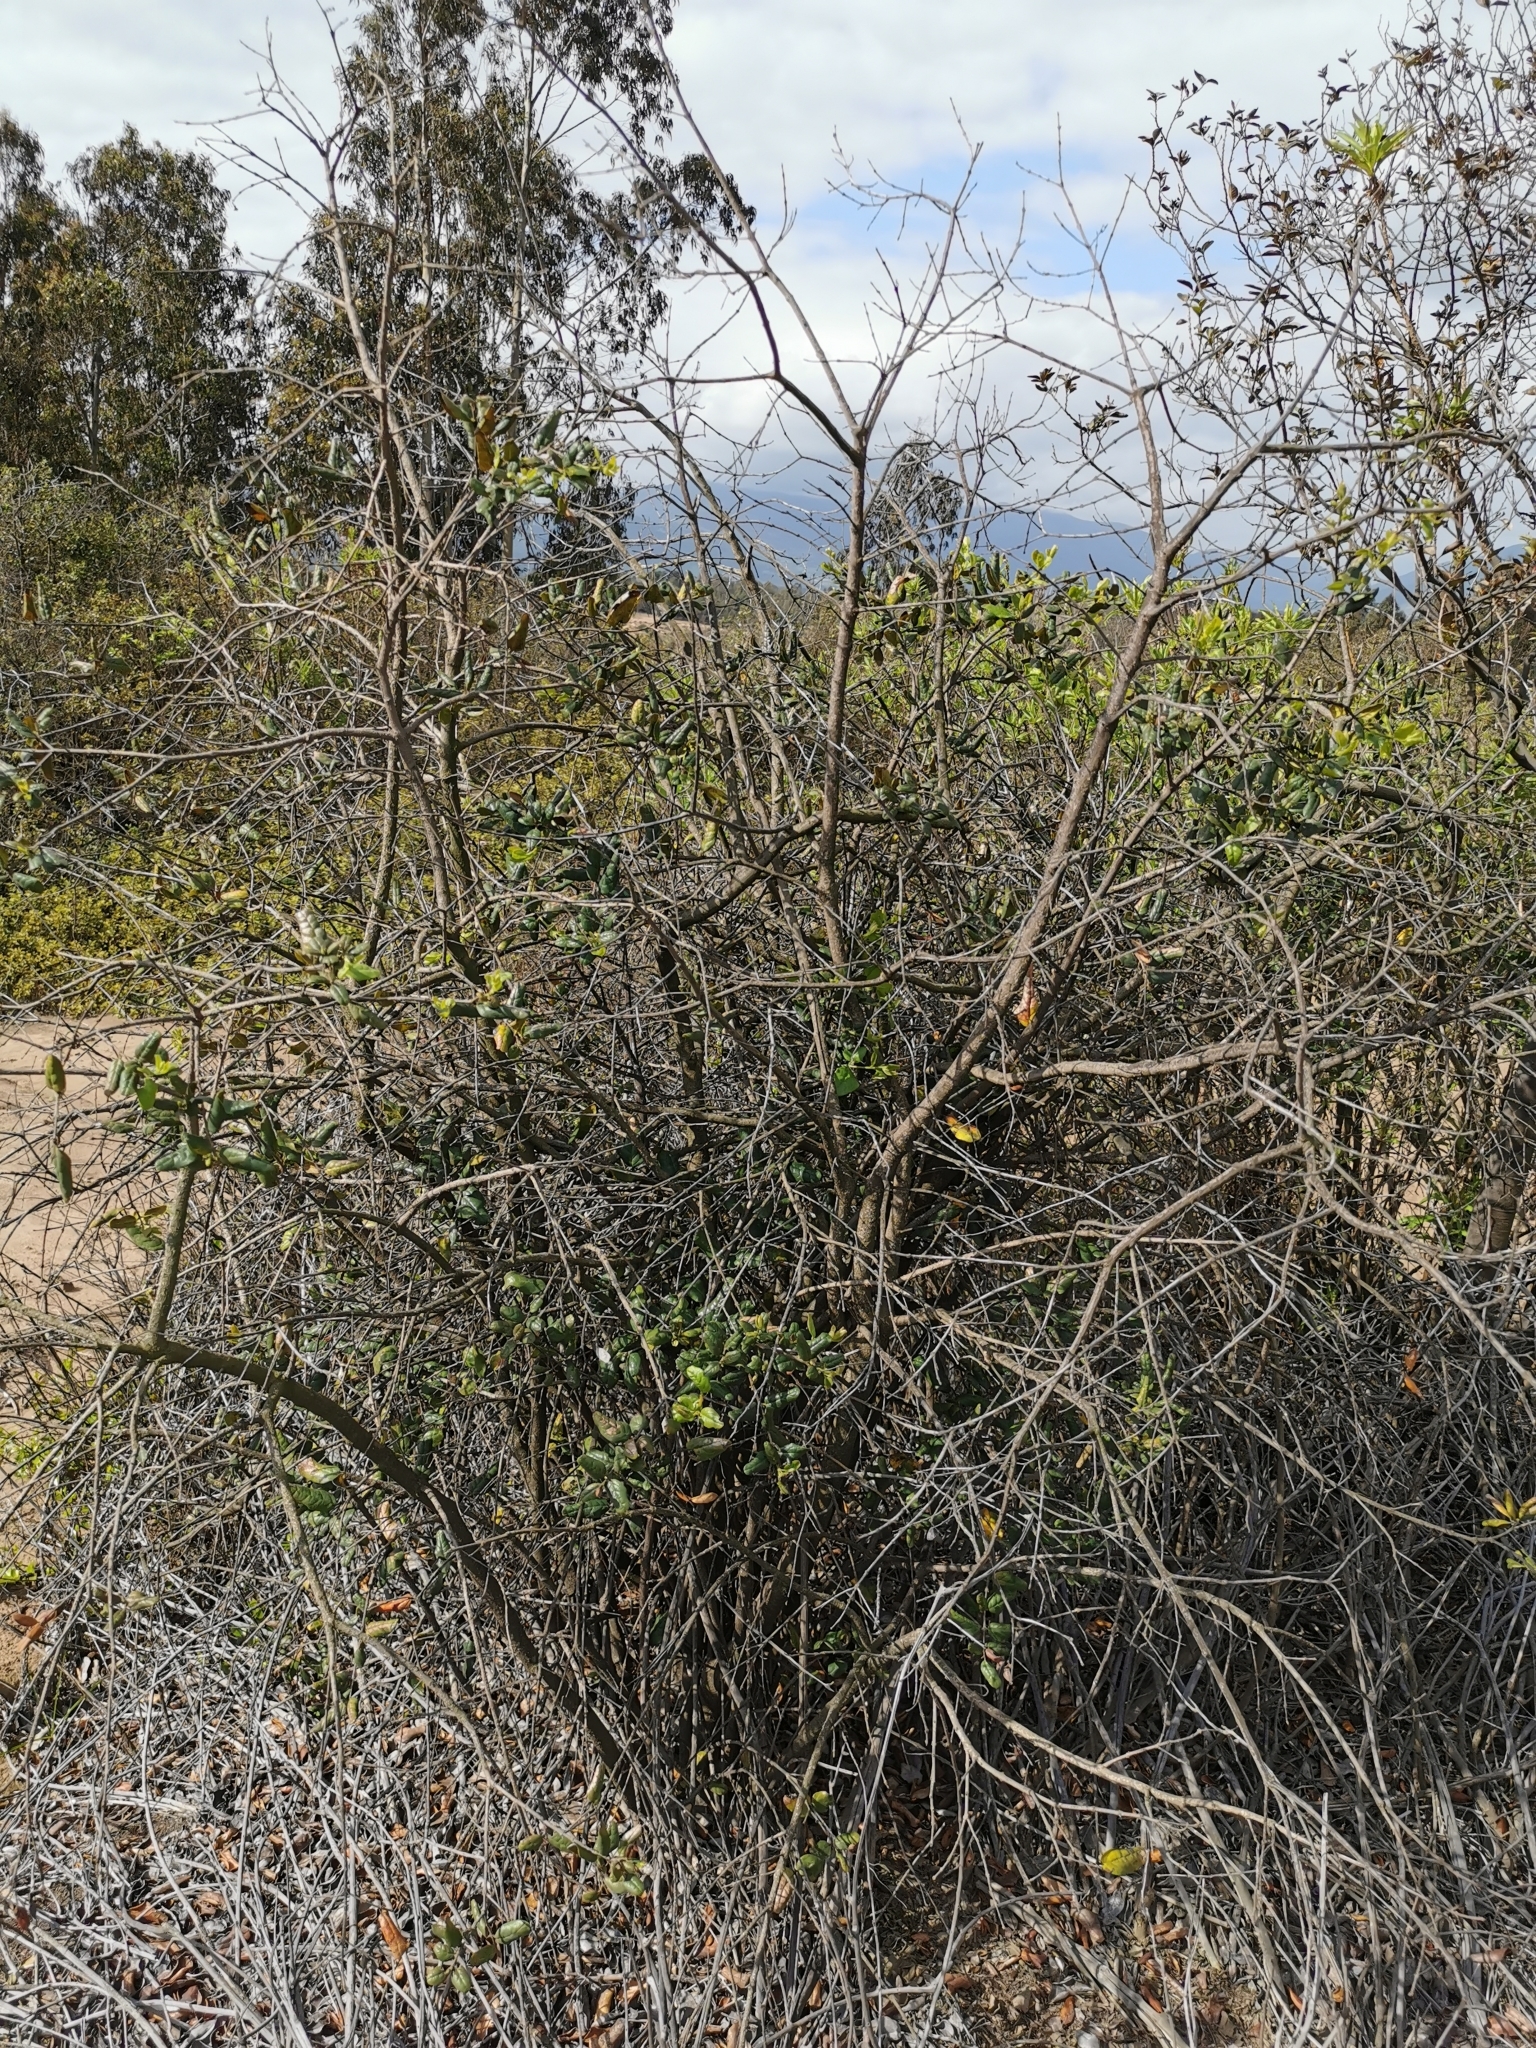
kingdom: Plantae
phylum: Tracheophyta
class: Magnoliopsida
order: Laurales
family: Monimiaceae
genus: Peumus
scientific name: Peumus boldus
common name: Boldo
